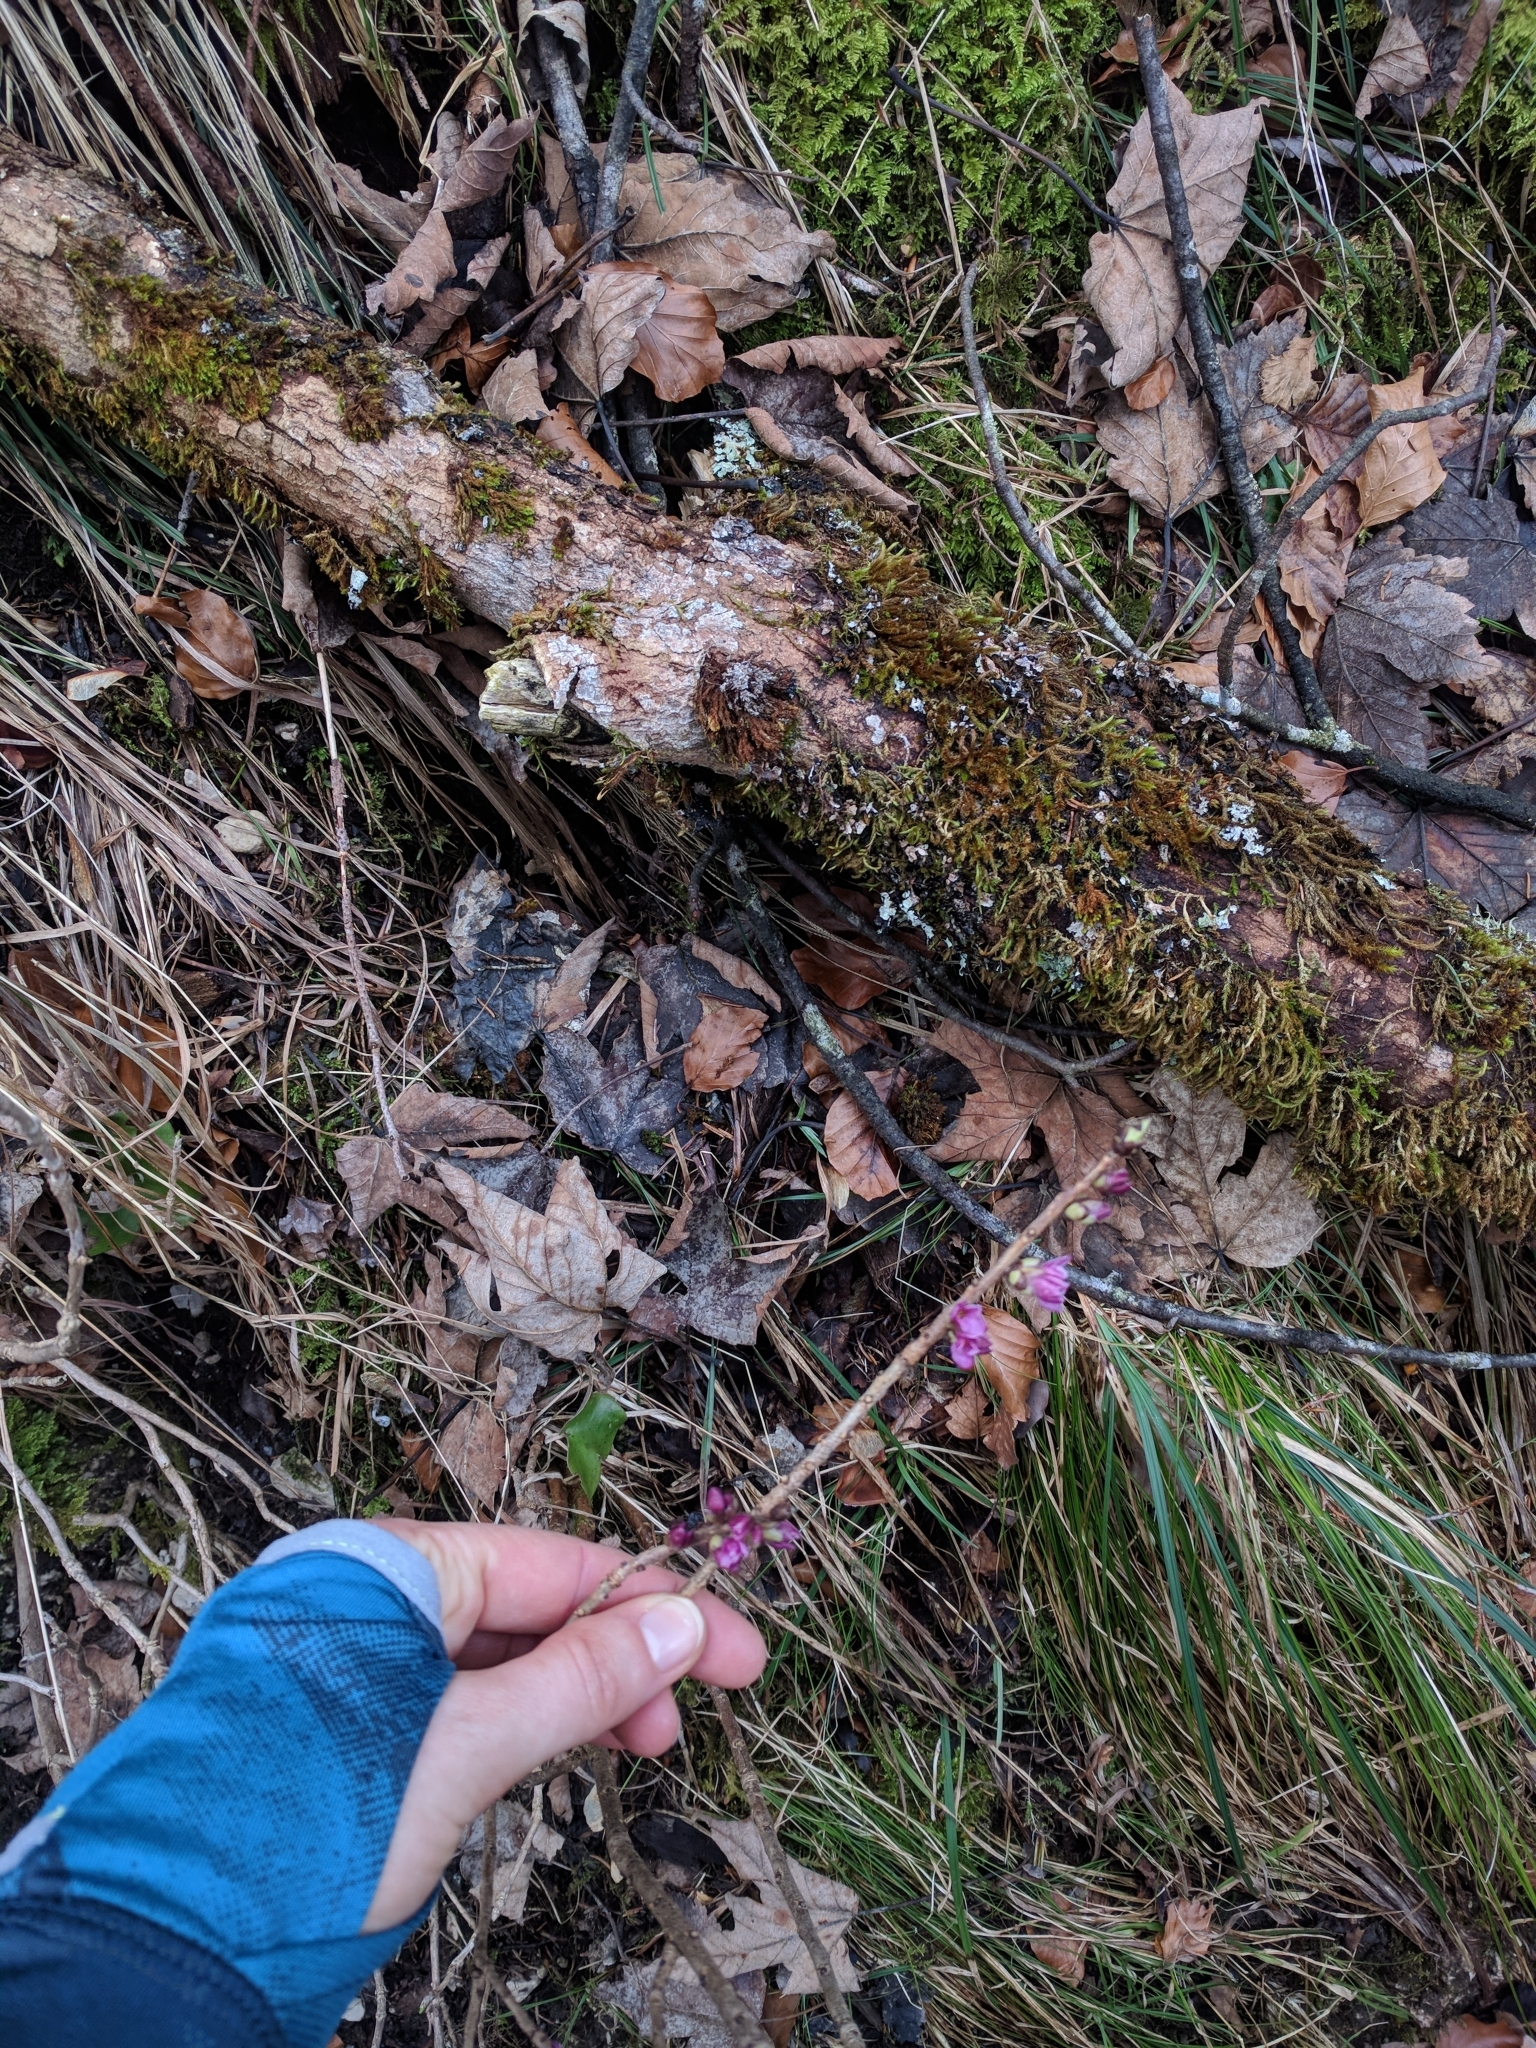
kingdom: Plantae
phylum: Tracheophyta
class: Magnoliopsida
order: Malvales
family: Thymelaeaceae
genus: Daphne
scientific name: Daphne mezereum
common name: Mezereon
